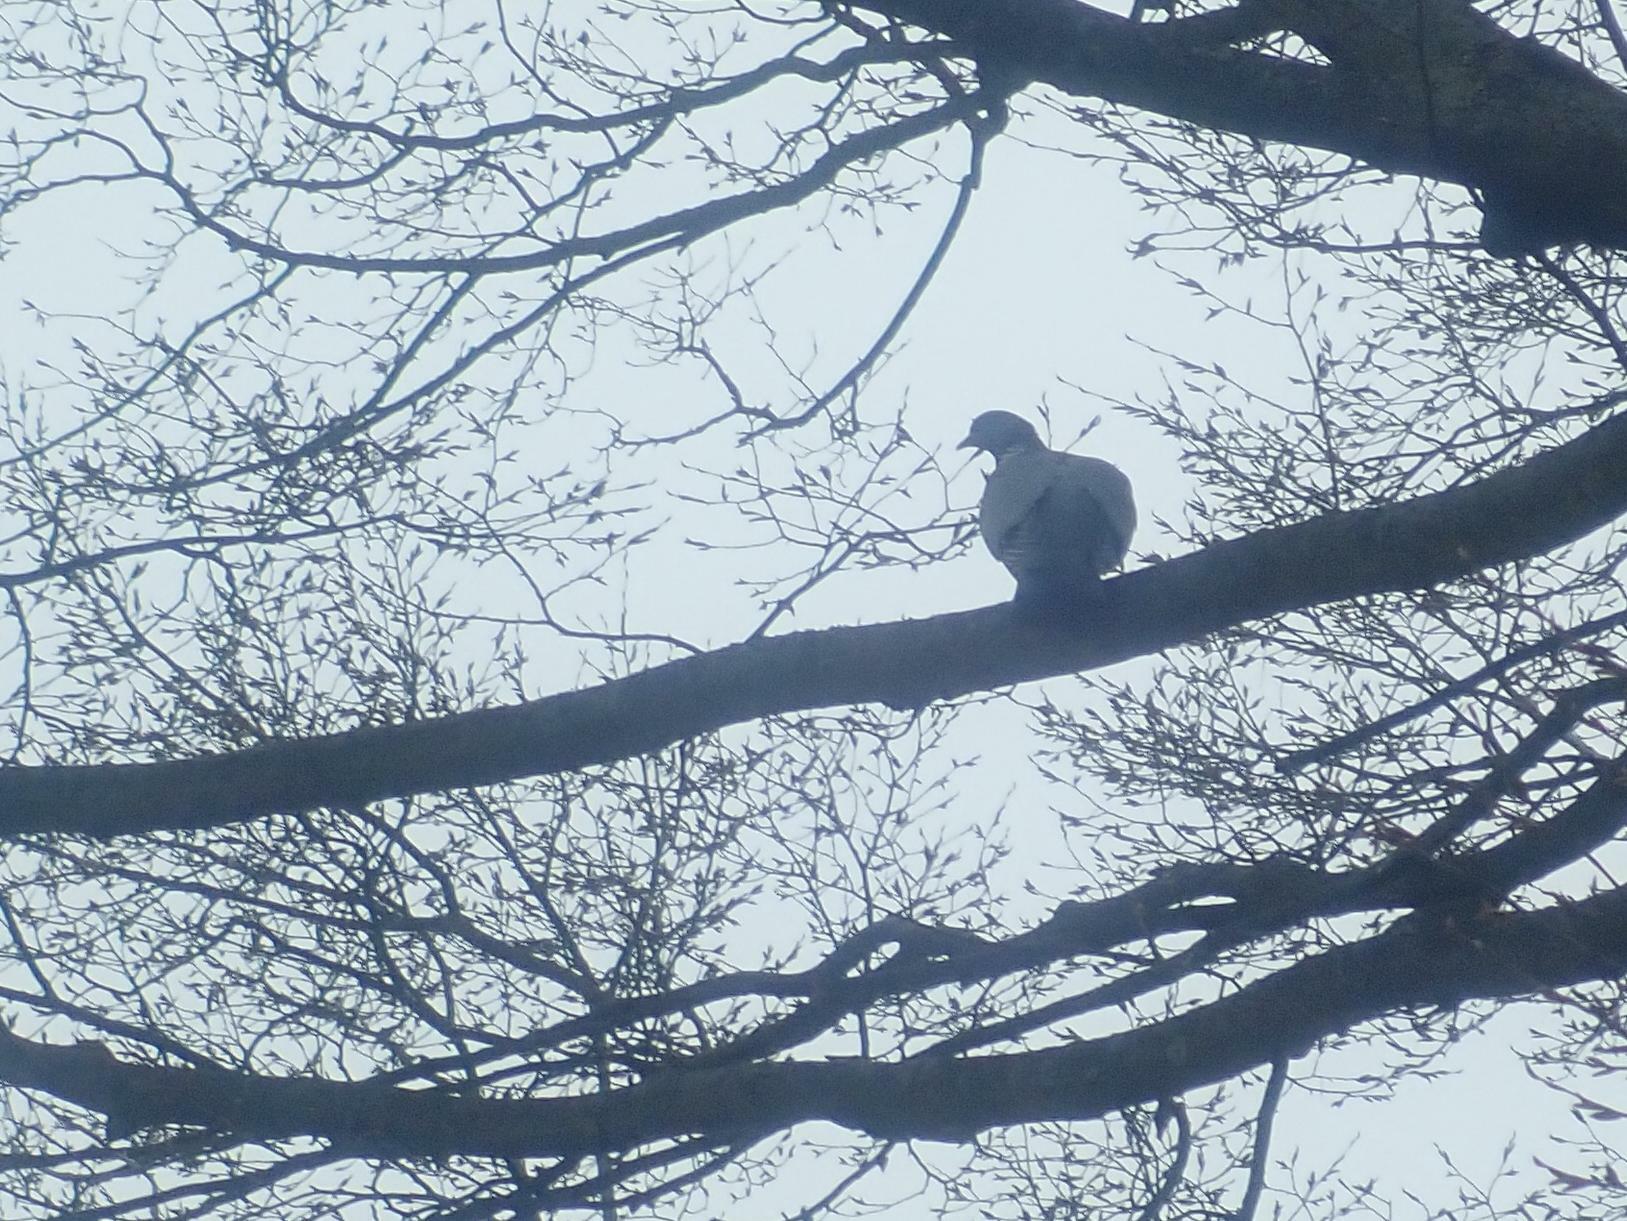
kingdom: Animalia
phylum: Chordata
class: Aves
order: Columbiformes
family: Columbidae
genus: Columba
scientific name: Columba palumbus
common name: Common wood pigeon
